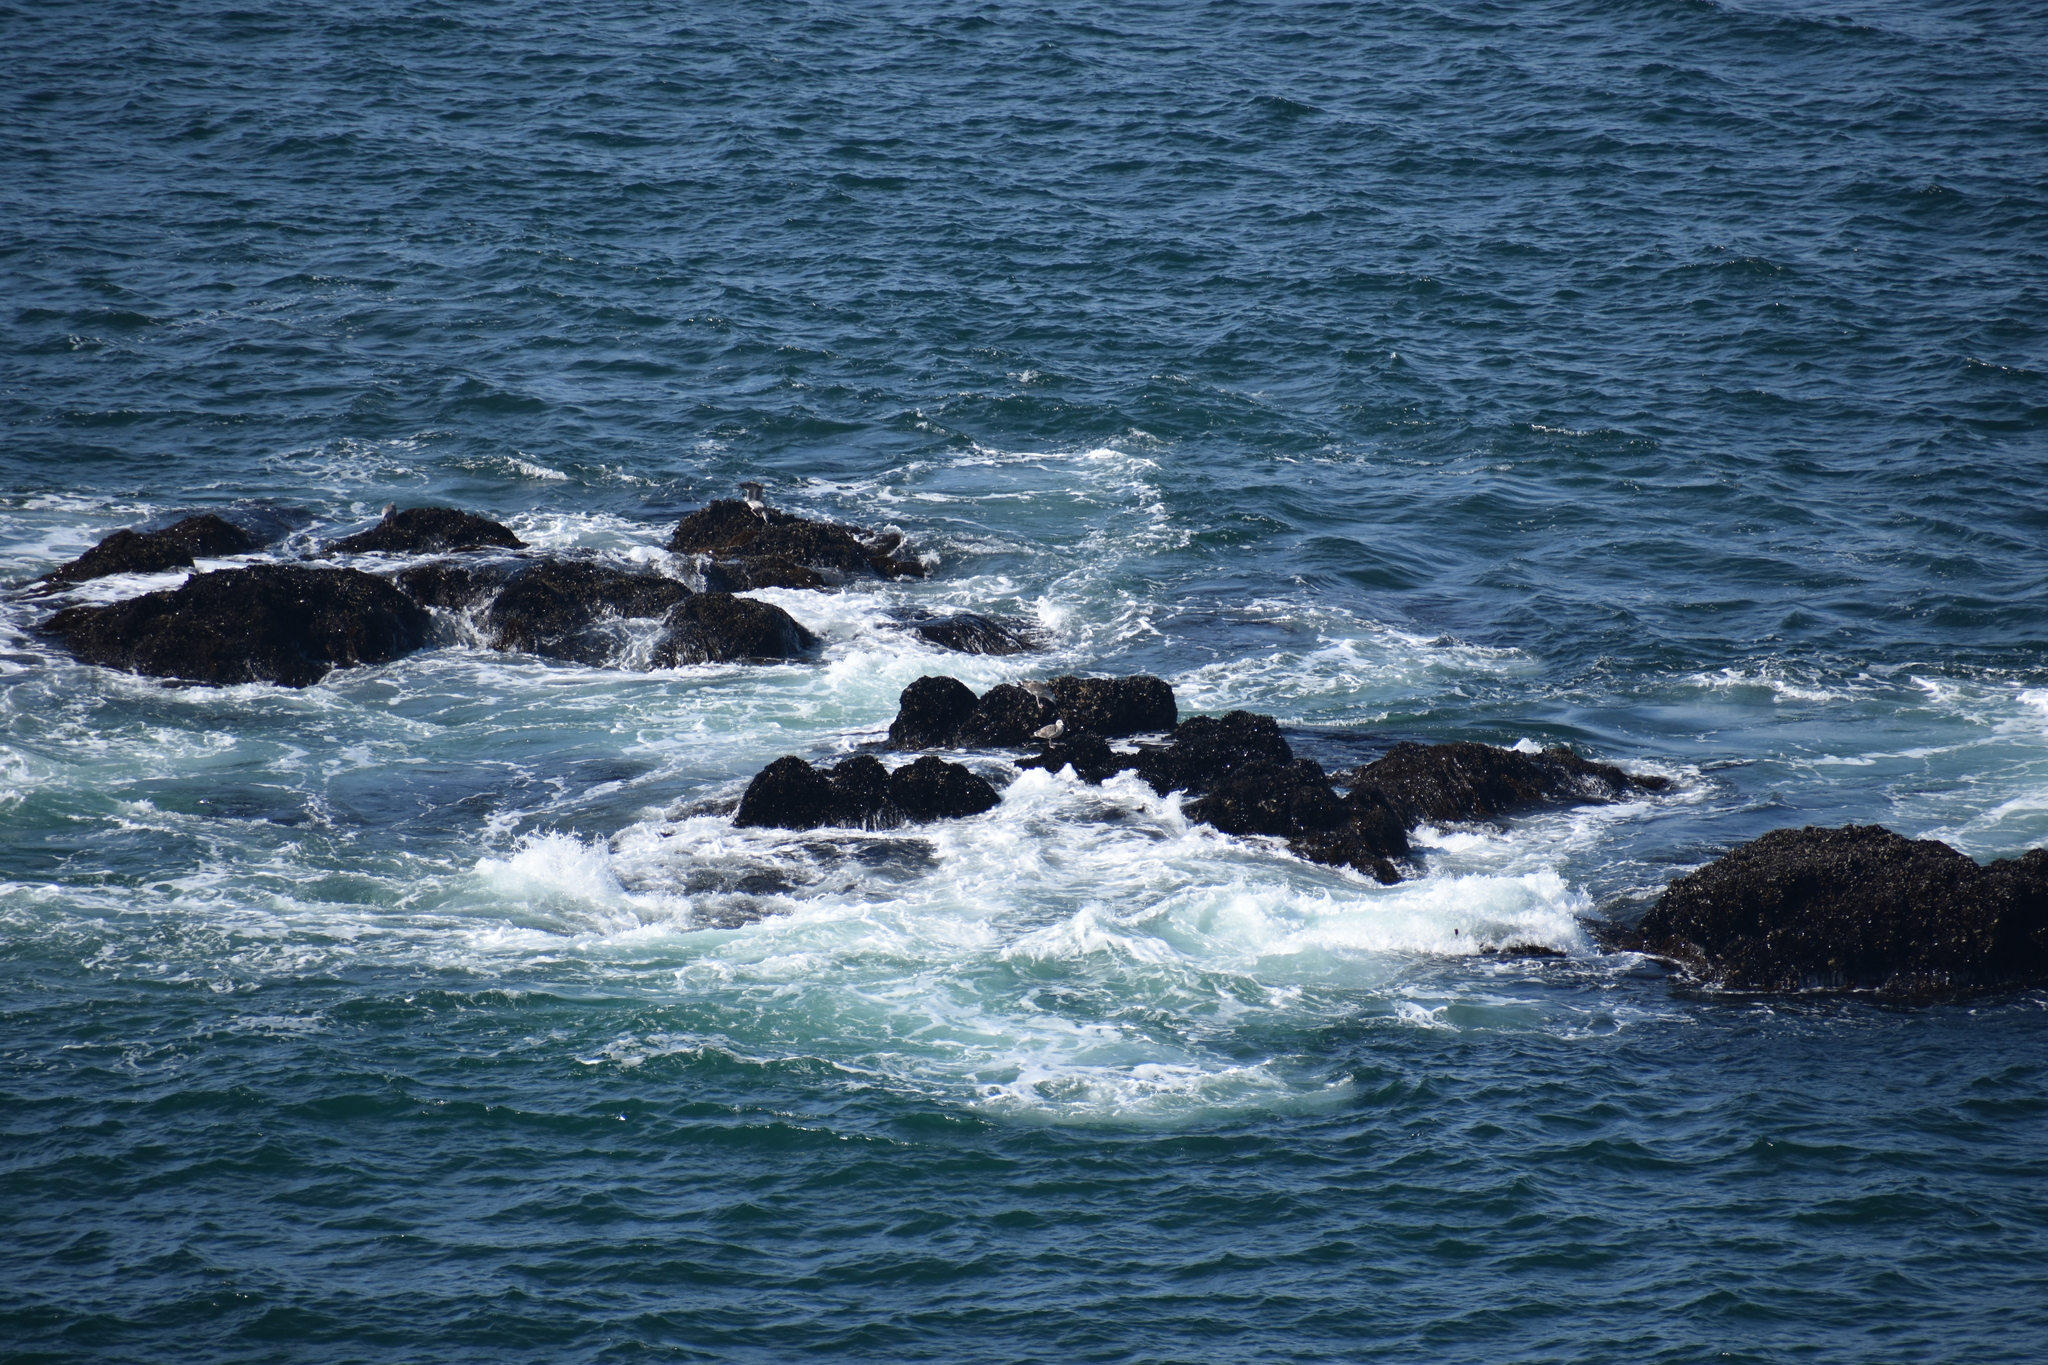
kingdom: Animalia
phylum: Chordata
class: Aves
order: Charadriiformes
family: Laridae
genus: Larus
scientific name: Larus
